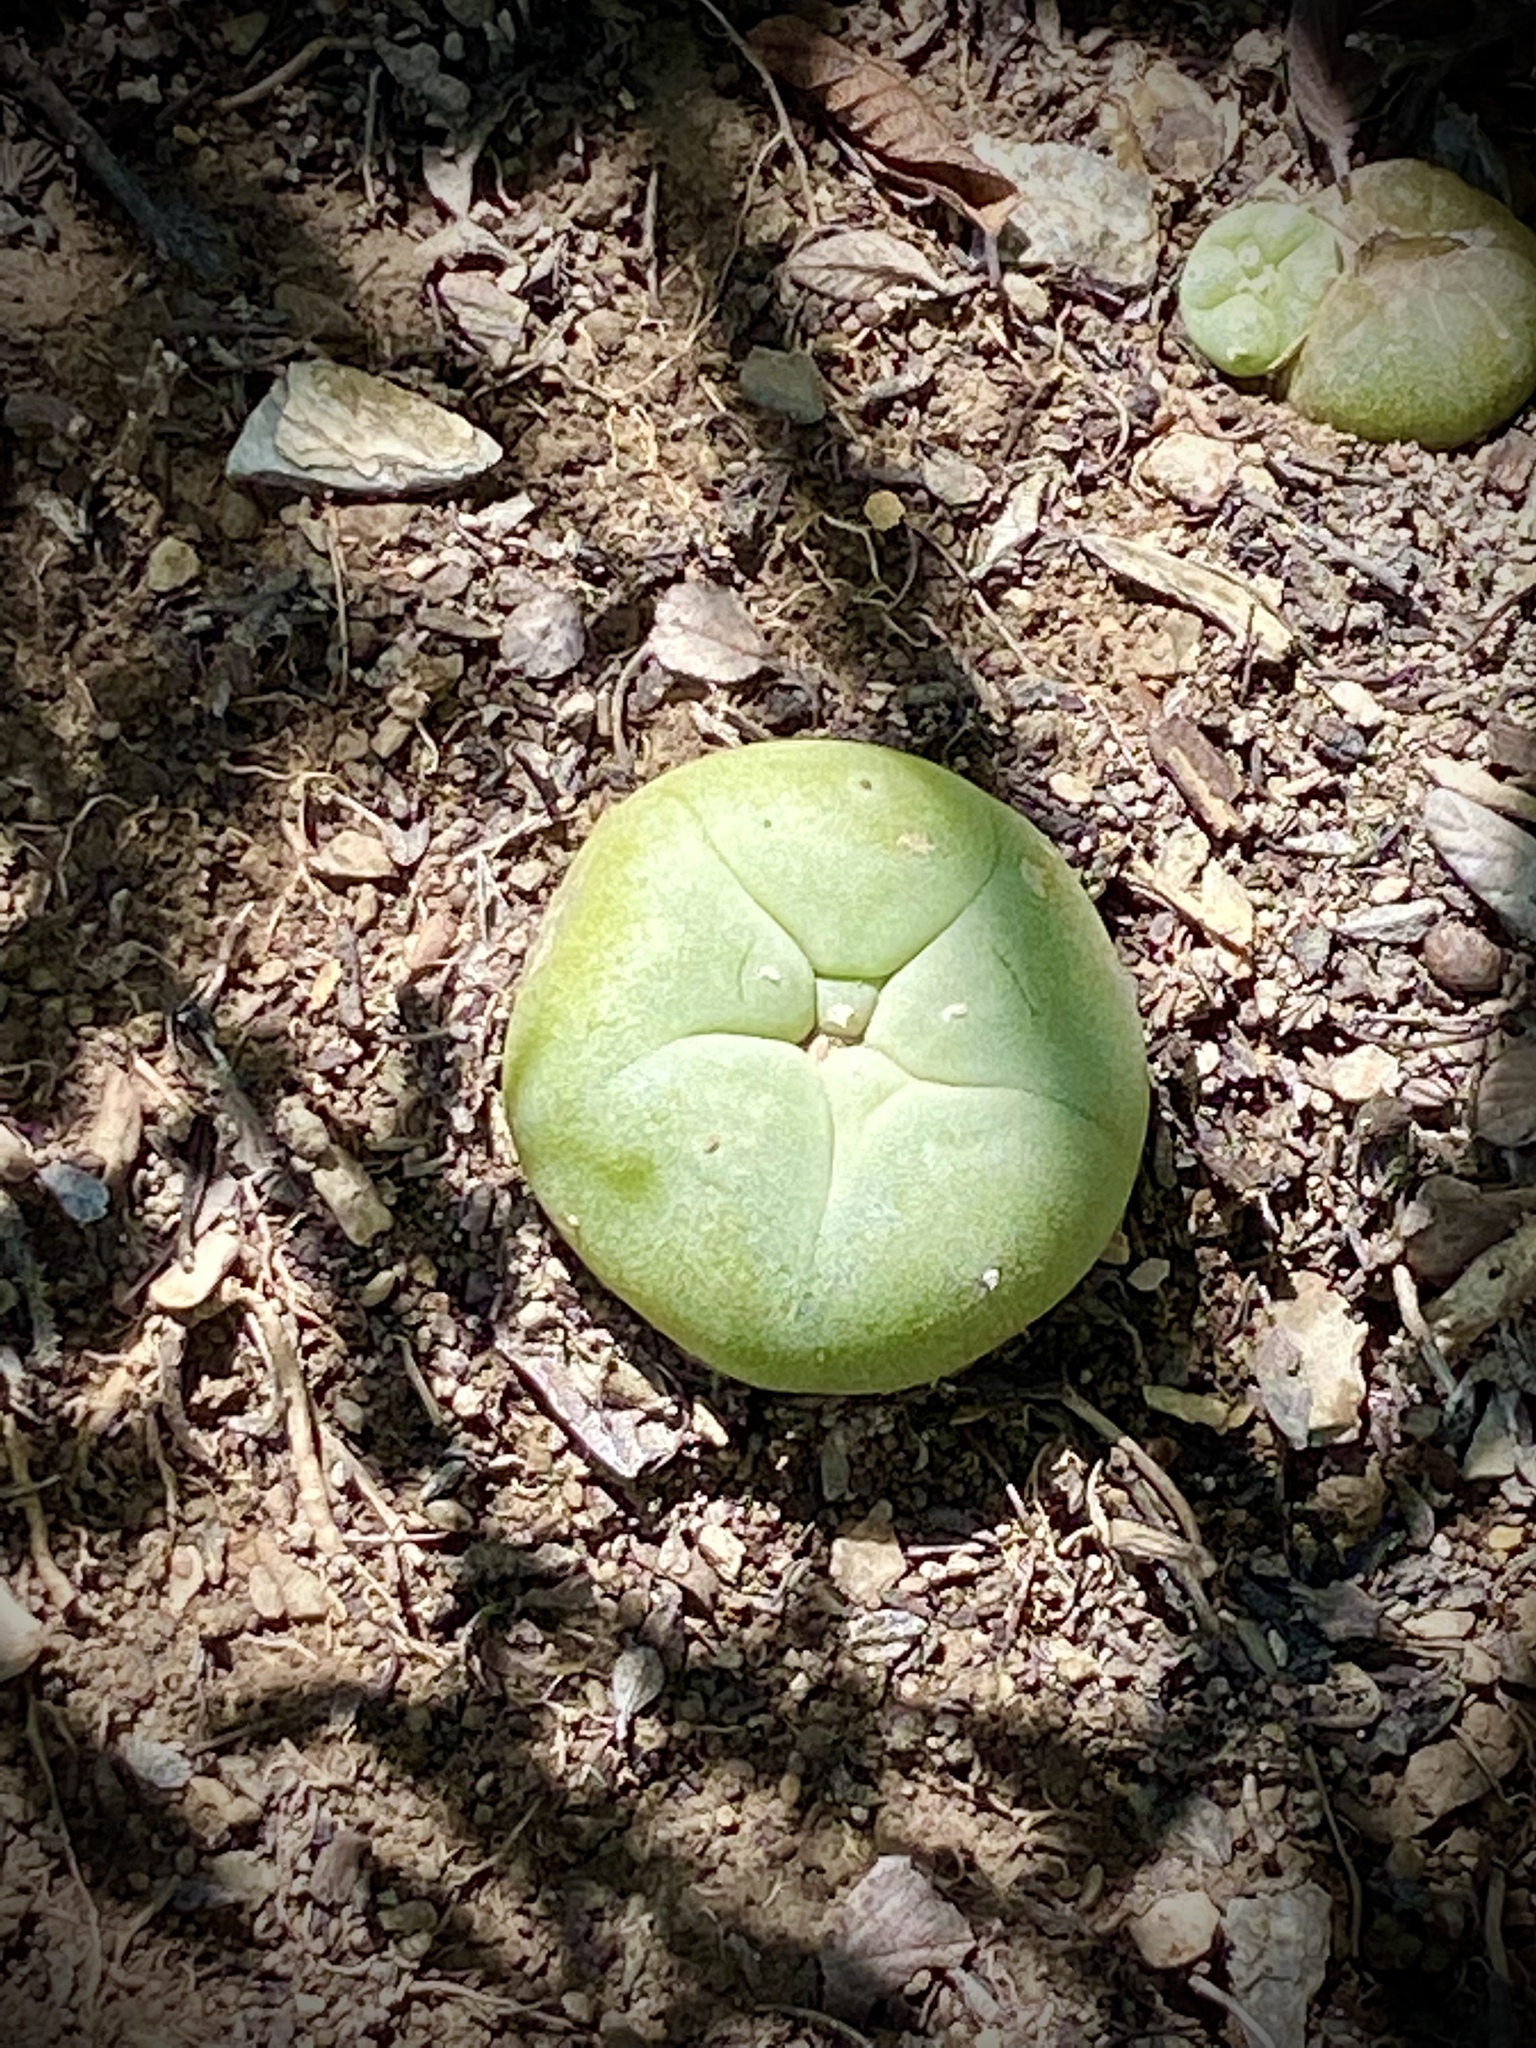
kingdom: Plantae
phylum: Tracheophyta
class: Magnoliopsida
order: Caryophyllales
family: Cactaceae
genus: Lophophora
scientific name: Lophophora diffusa
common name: Peyote
